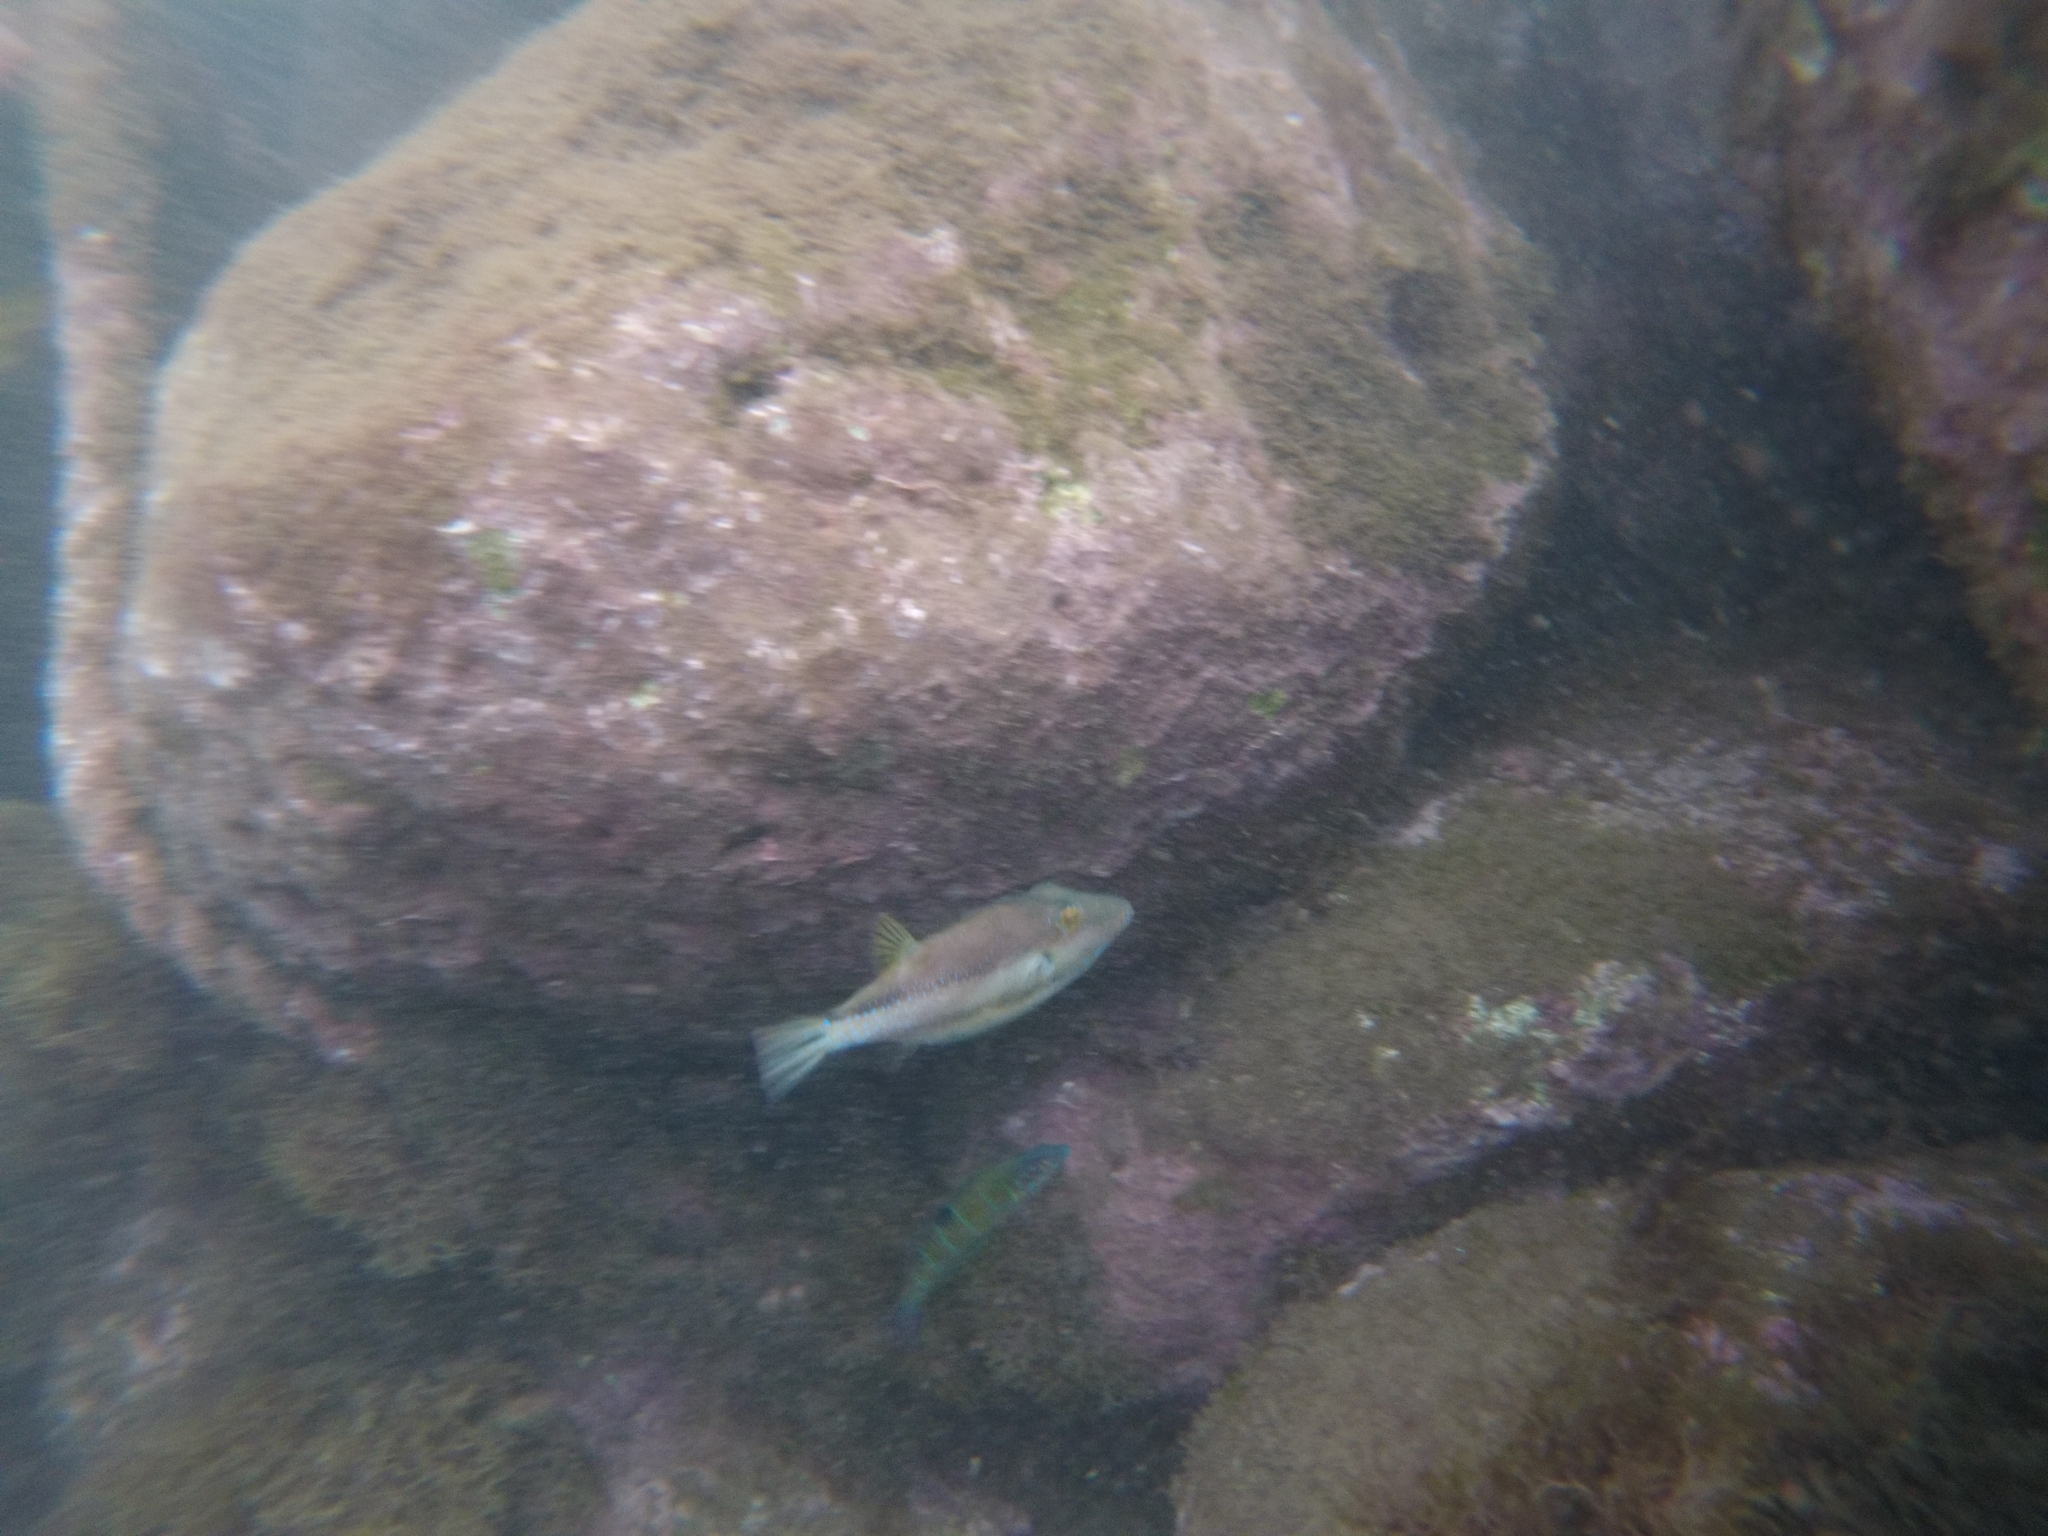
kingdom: Animalia
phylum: Chordata
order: Tetraodontiformes
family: Tetraodontidae
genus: Canthigaster
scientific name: Canthigaster capistrata
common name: Macaronesian sharpnose-puffer
